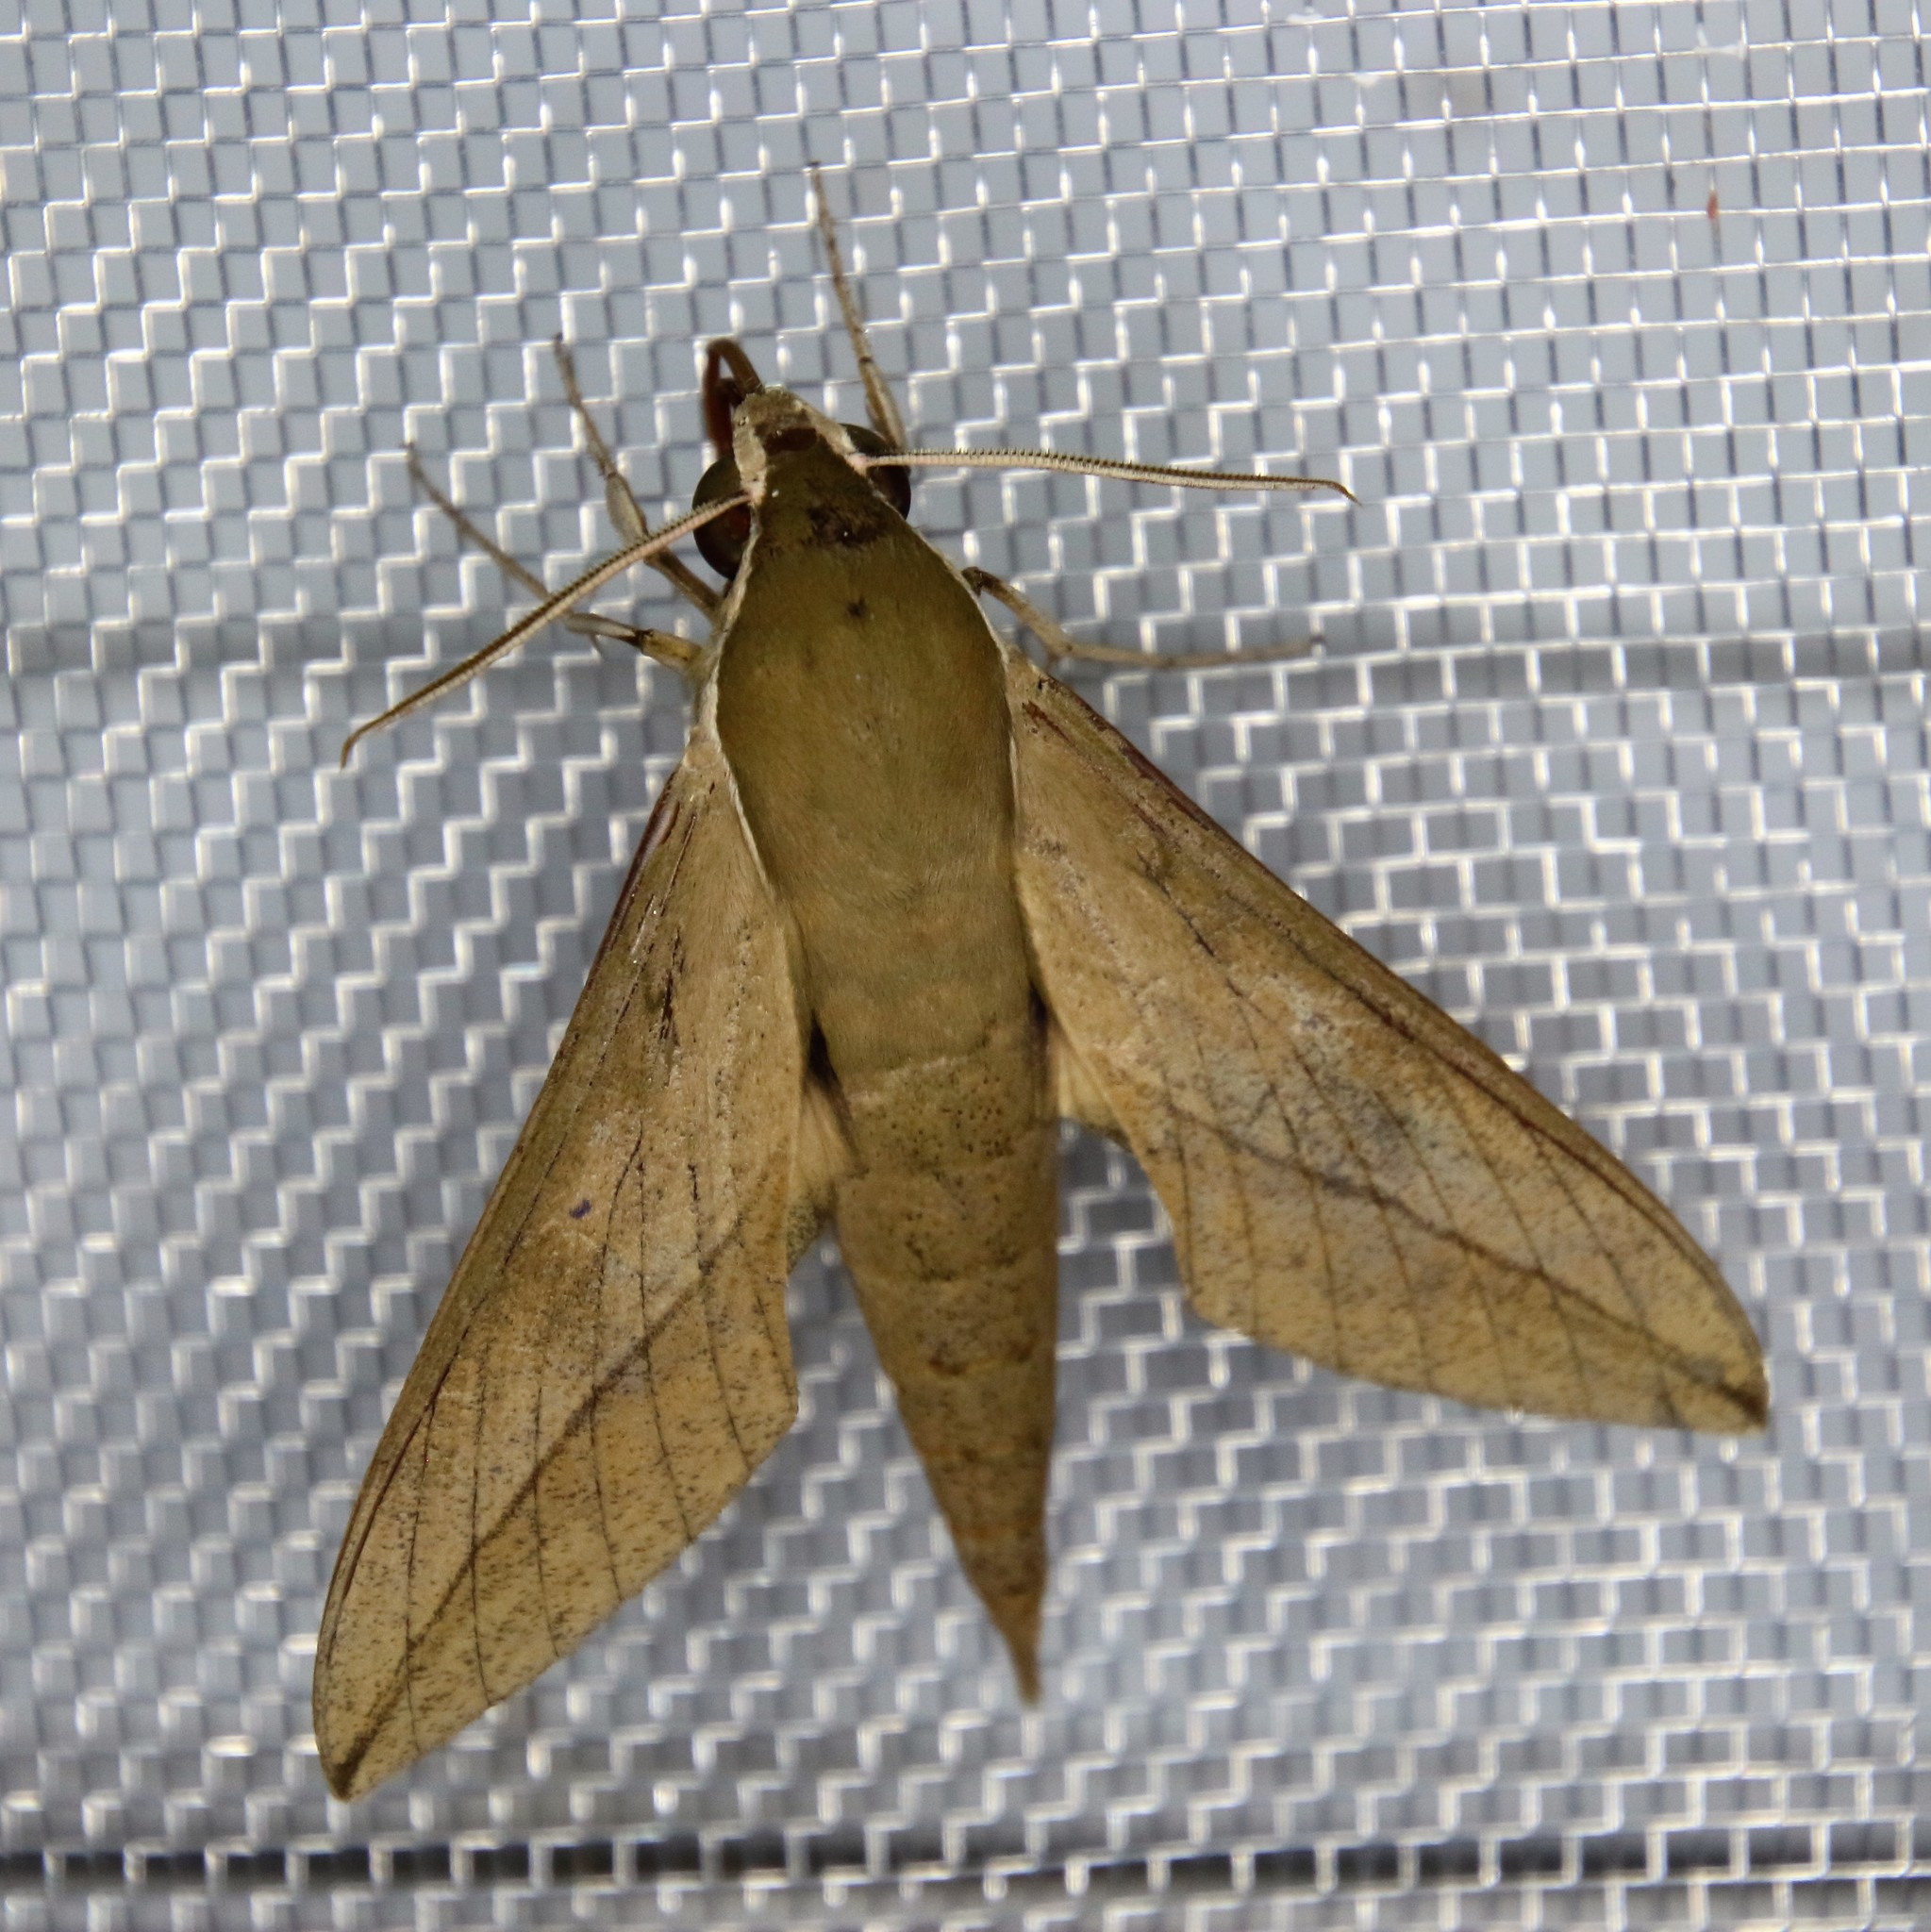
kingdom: Animalia
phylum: Arthropoda
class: Insecta
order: Lepidoptera
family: Sphingidae
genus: Theretra
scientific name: Theretra clotho
